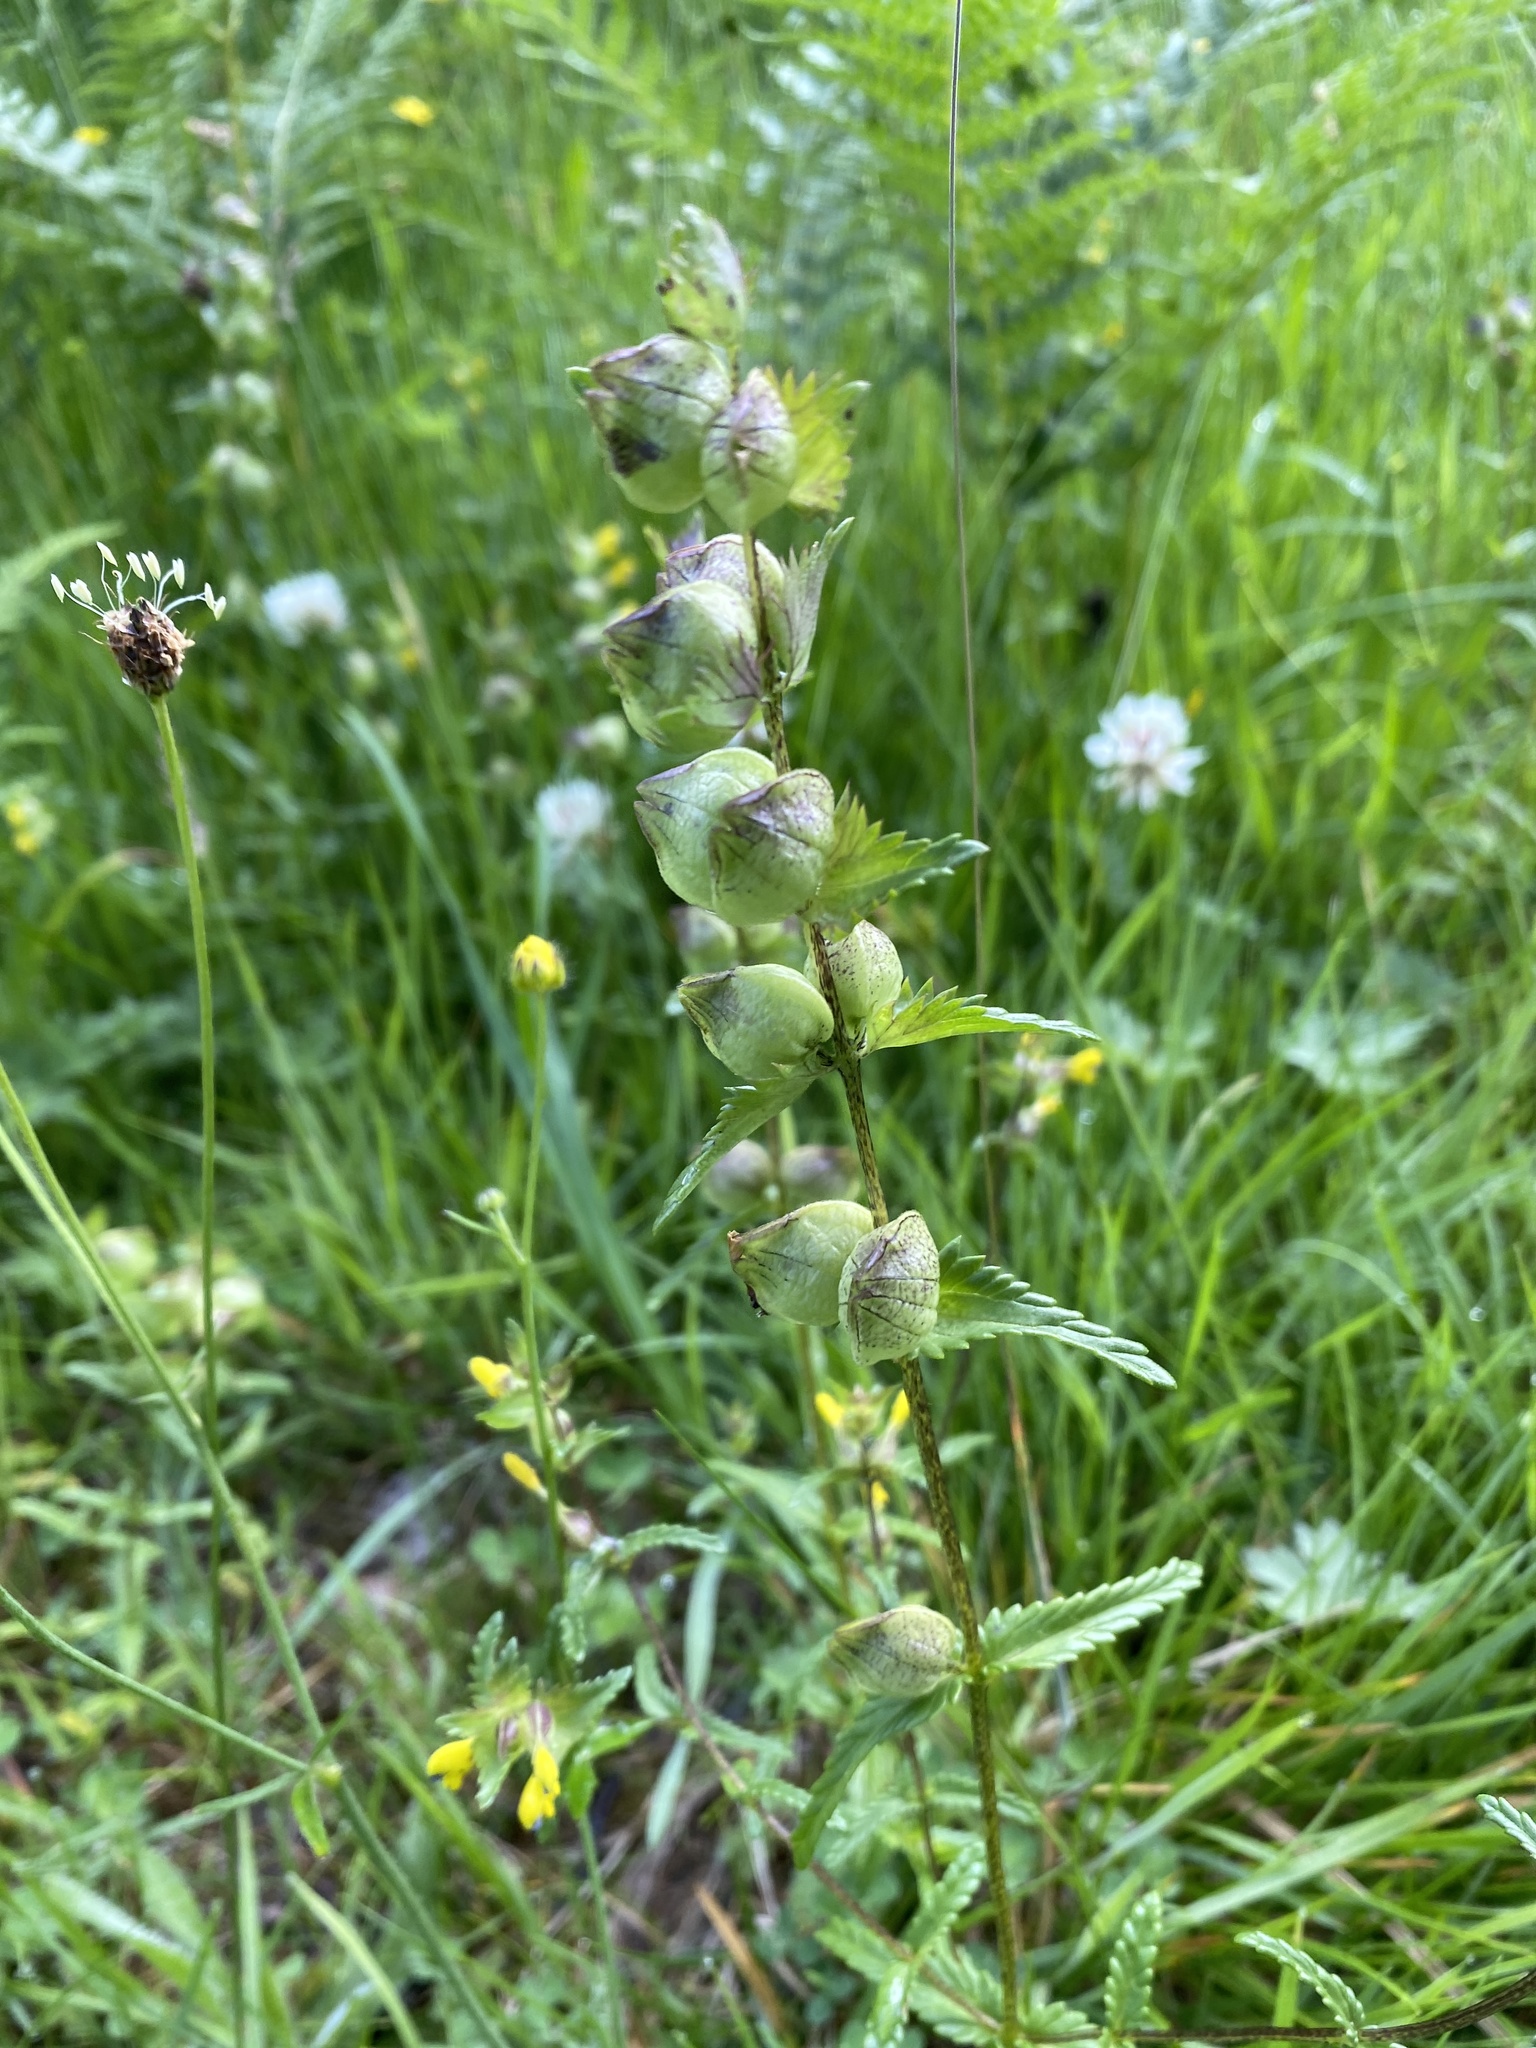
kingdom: Plantae
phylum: Tracheophyta
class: Magnoliopsida
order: Lamiales
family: Orobanchaceae
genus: Rhinanthus
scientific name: Rhinanthus minor
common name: Yellow-rattle
